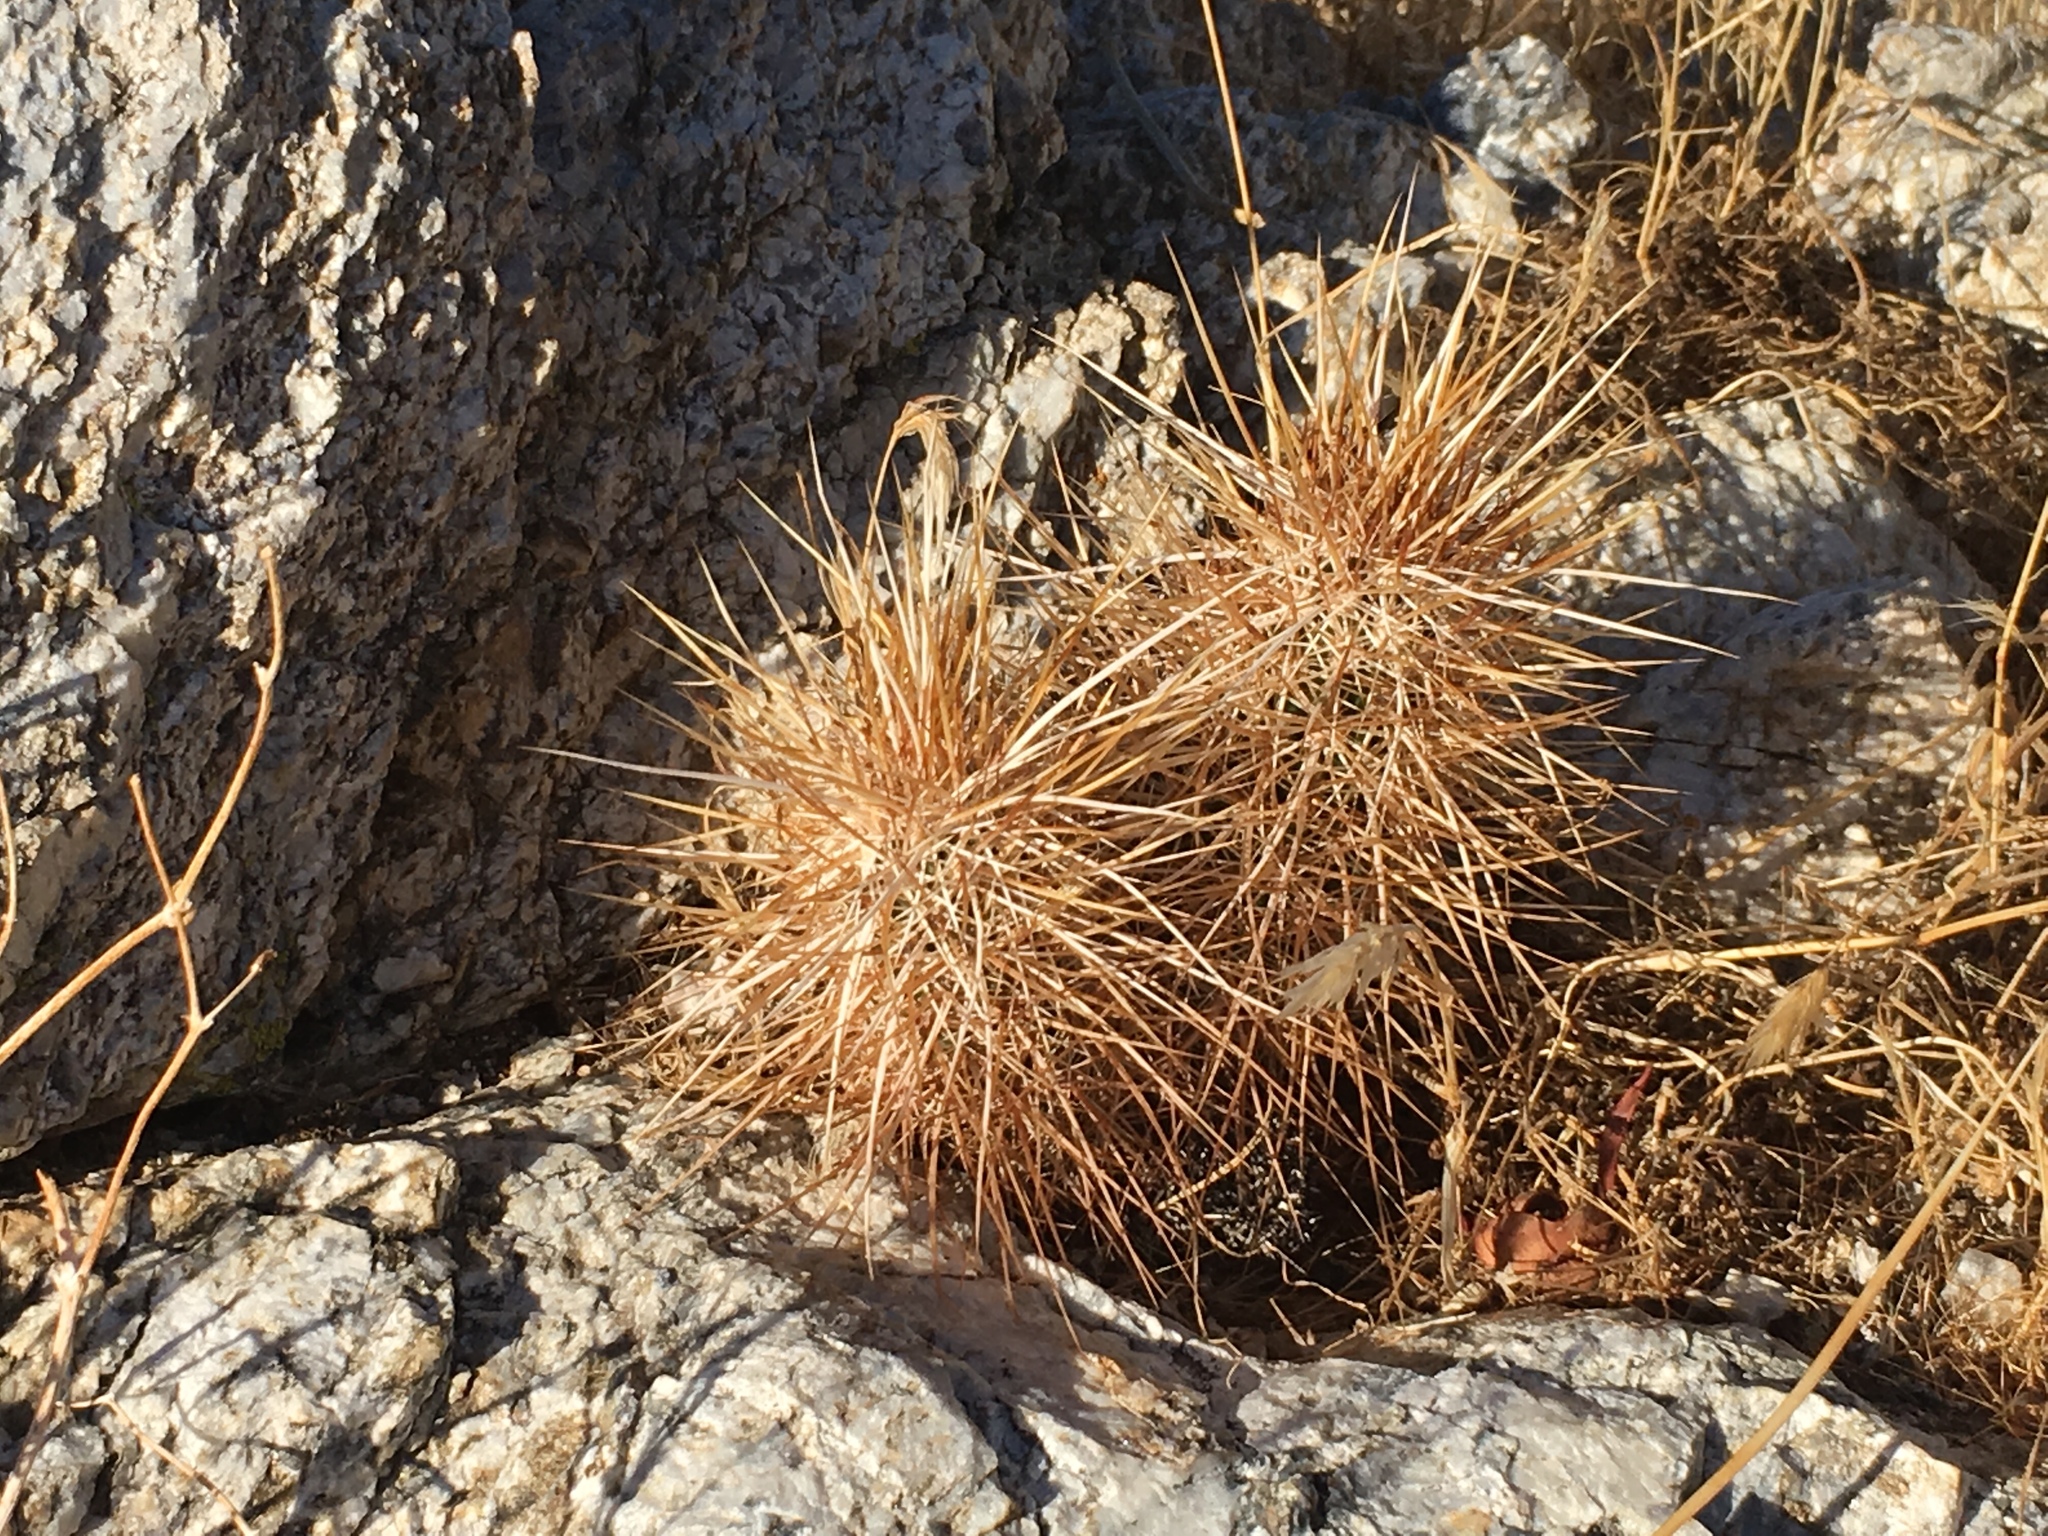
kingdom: Plantae
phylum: Tracheophyta
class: Magnoliopsida
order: Caryophyllales
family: Cactaceae
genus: Echinocereus
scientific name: Echinocereus engelmannii
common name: Engelmann's hedgehog cactus
